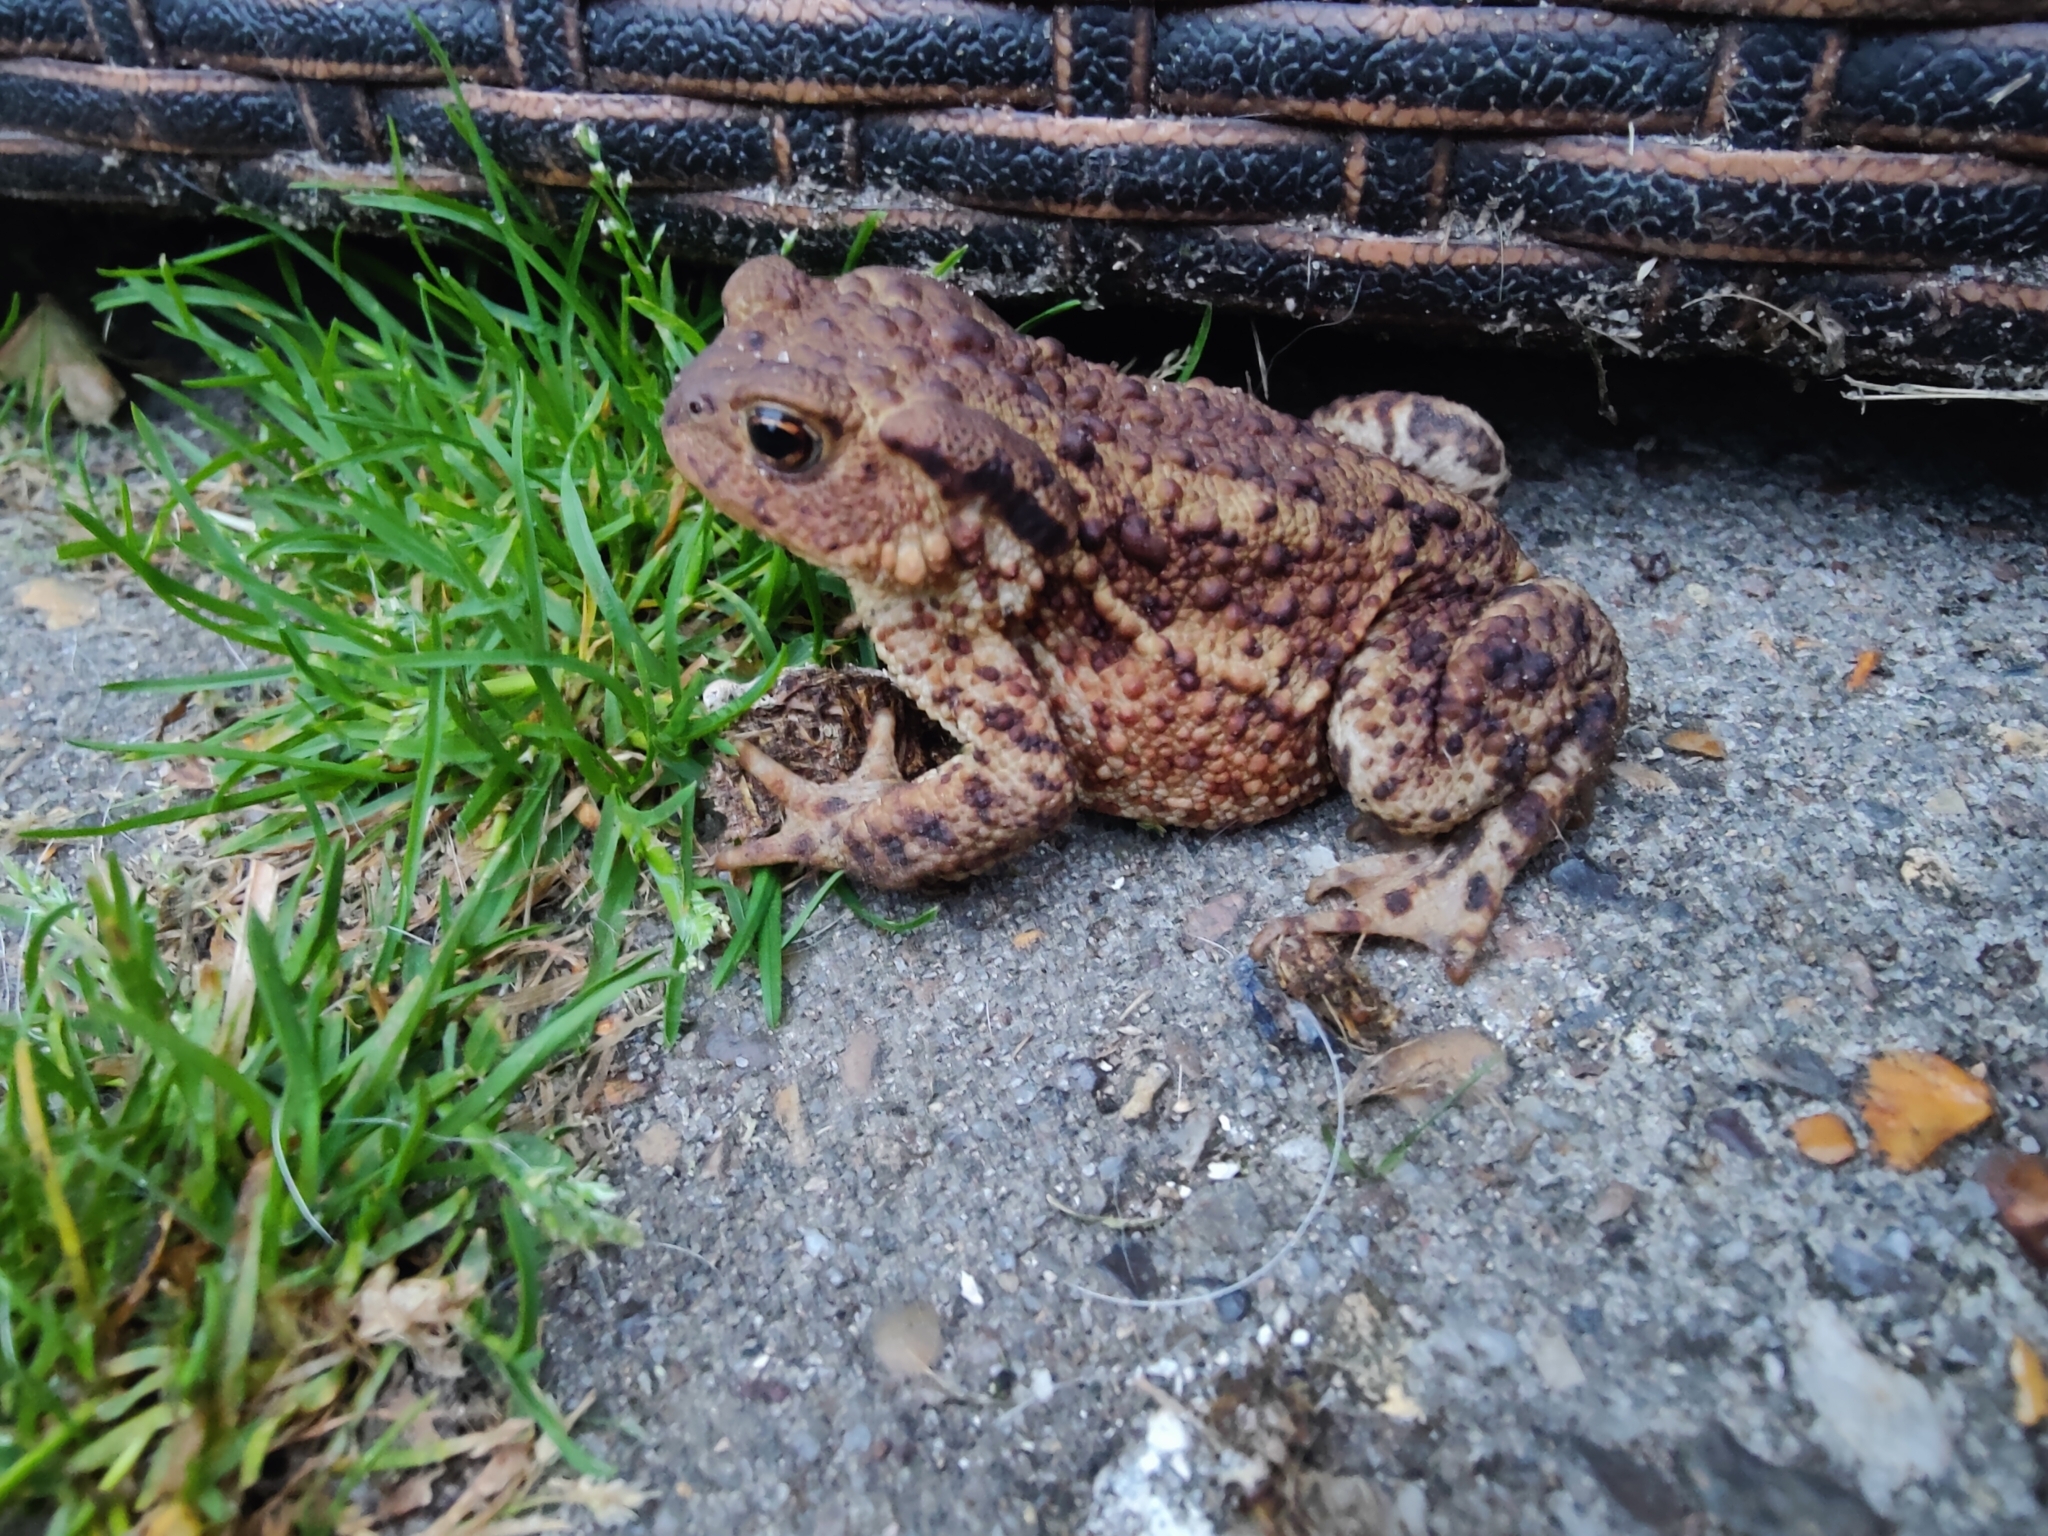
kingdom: Animalia
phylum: Chordata
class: Amphibia
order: Anura
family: Bufonidae
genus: Bufo
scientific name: Bufo bufo
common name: Common toad
